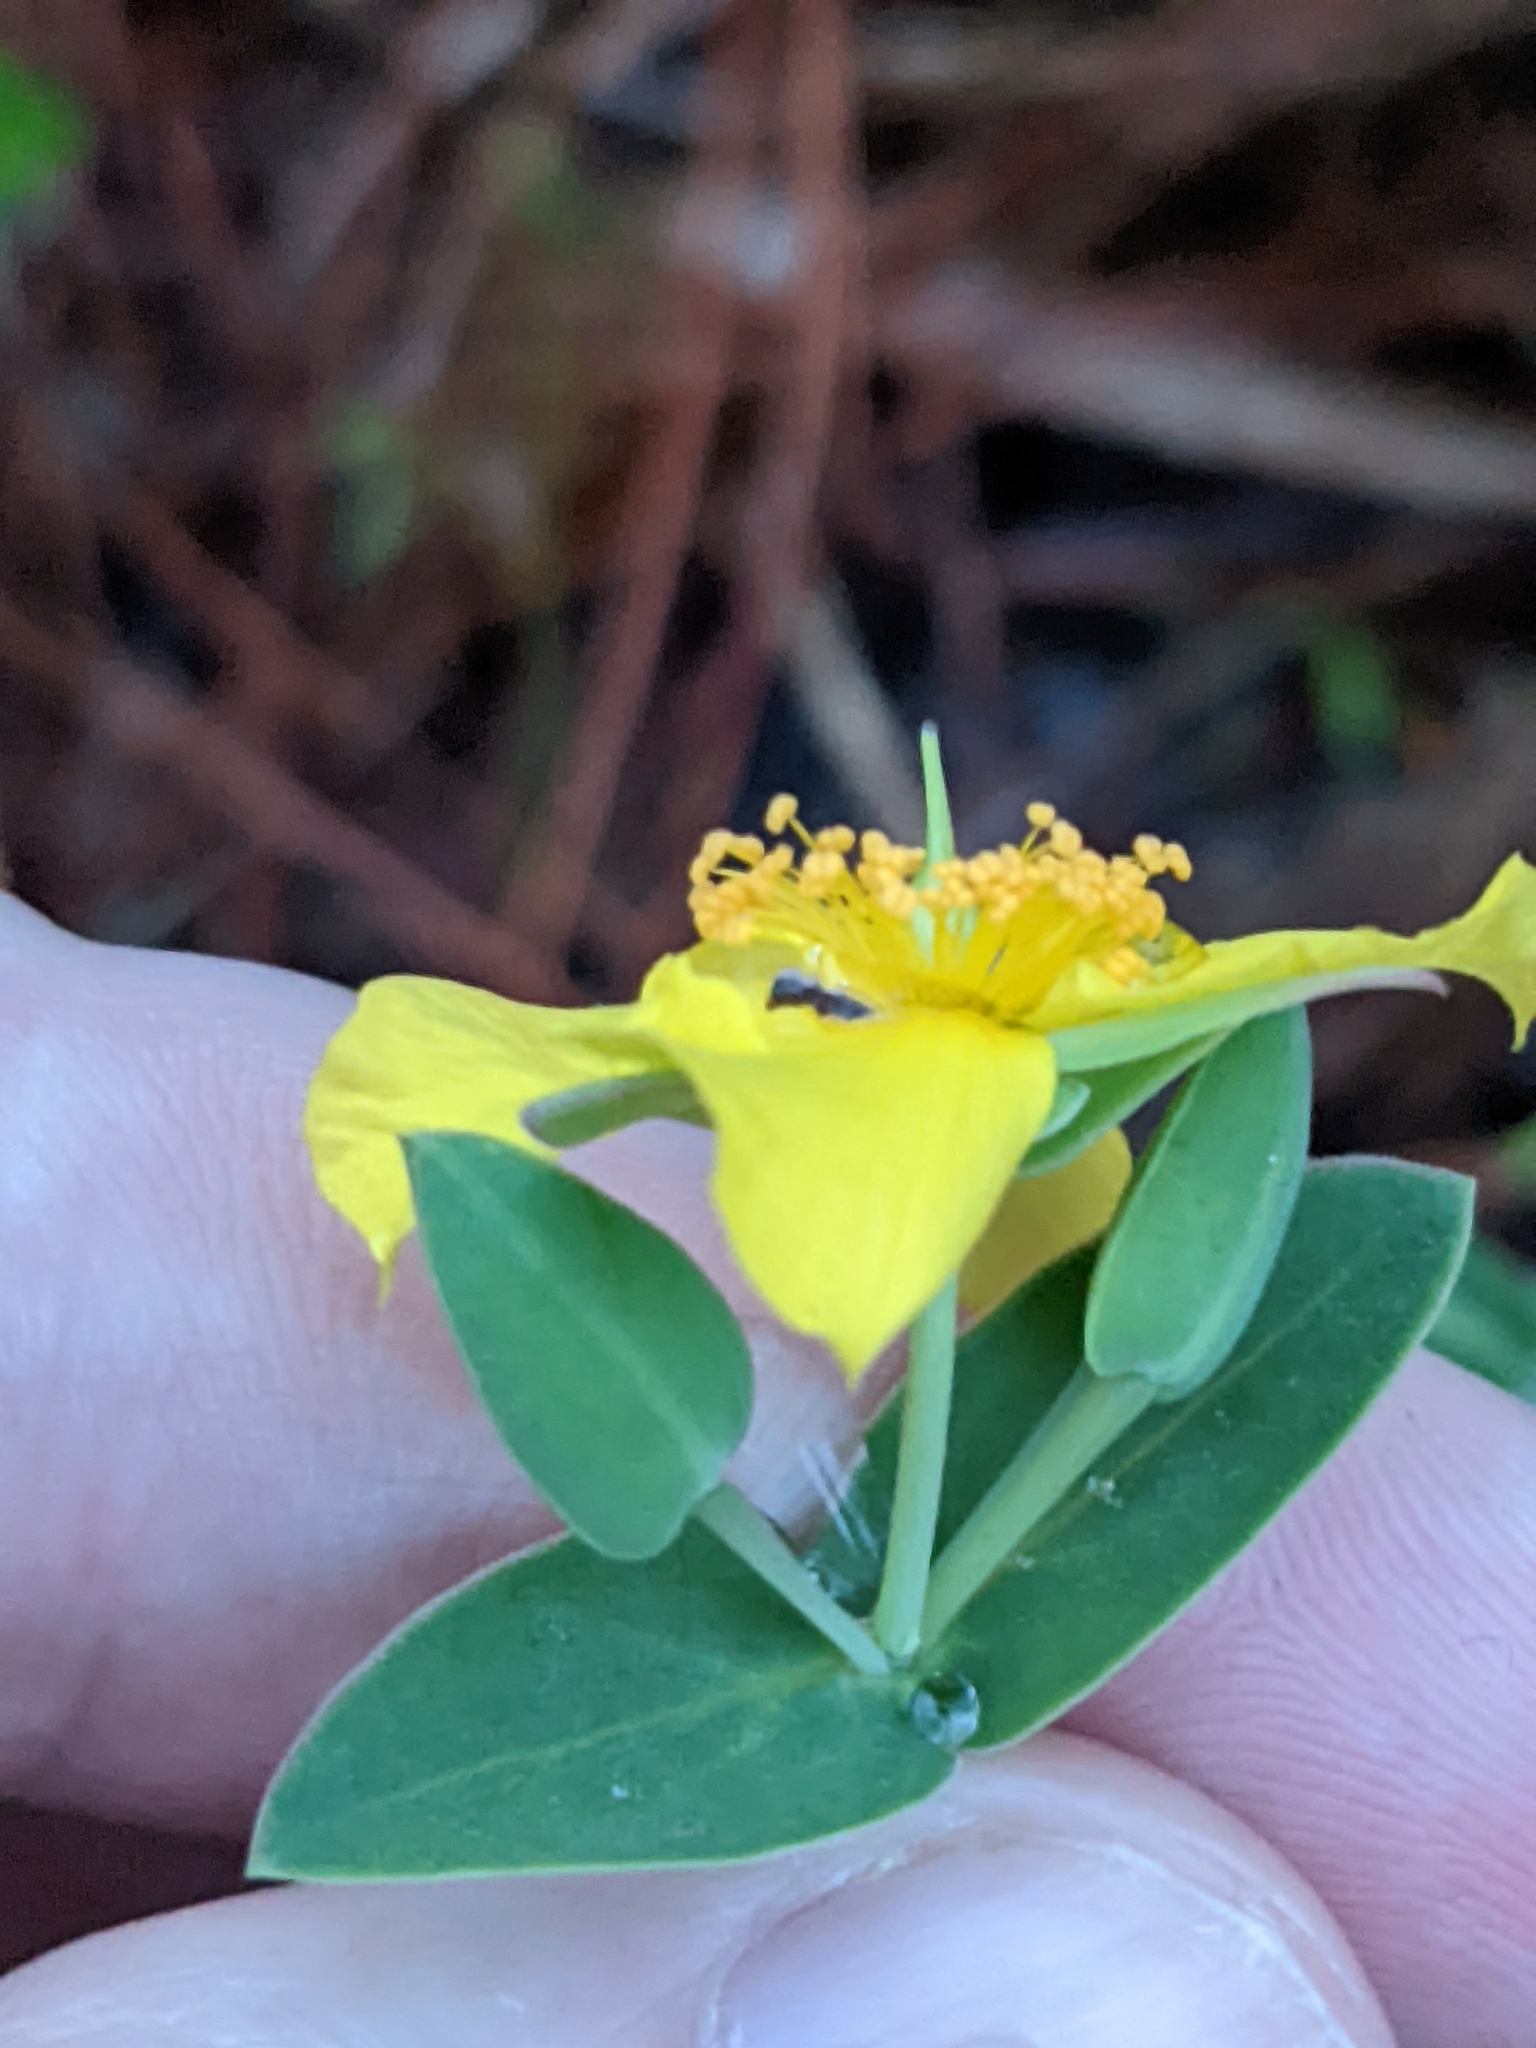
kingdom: Plantae
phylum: Tracheophyta
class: Magnoliopsida
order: Malpighiales
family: Hypericaceae
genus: Hypericum
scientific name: Hypericum tetrapetalum
